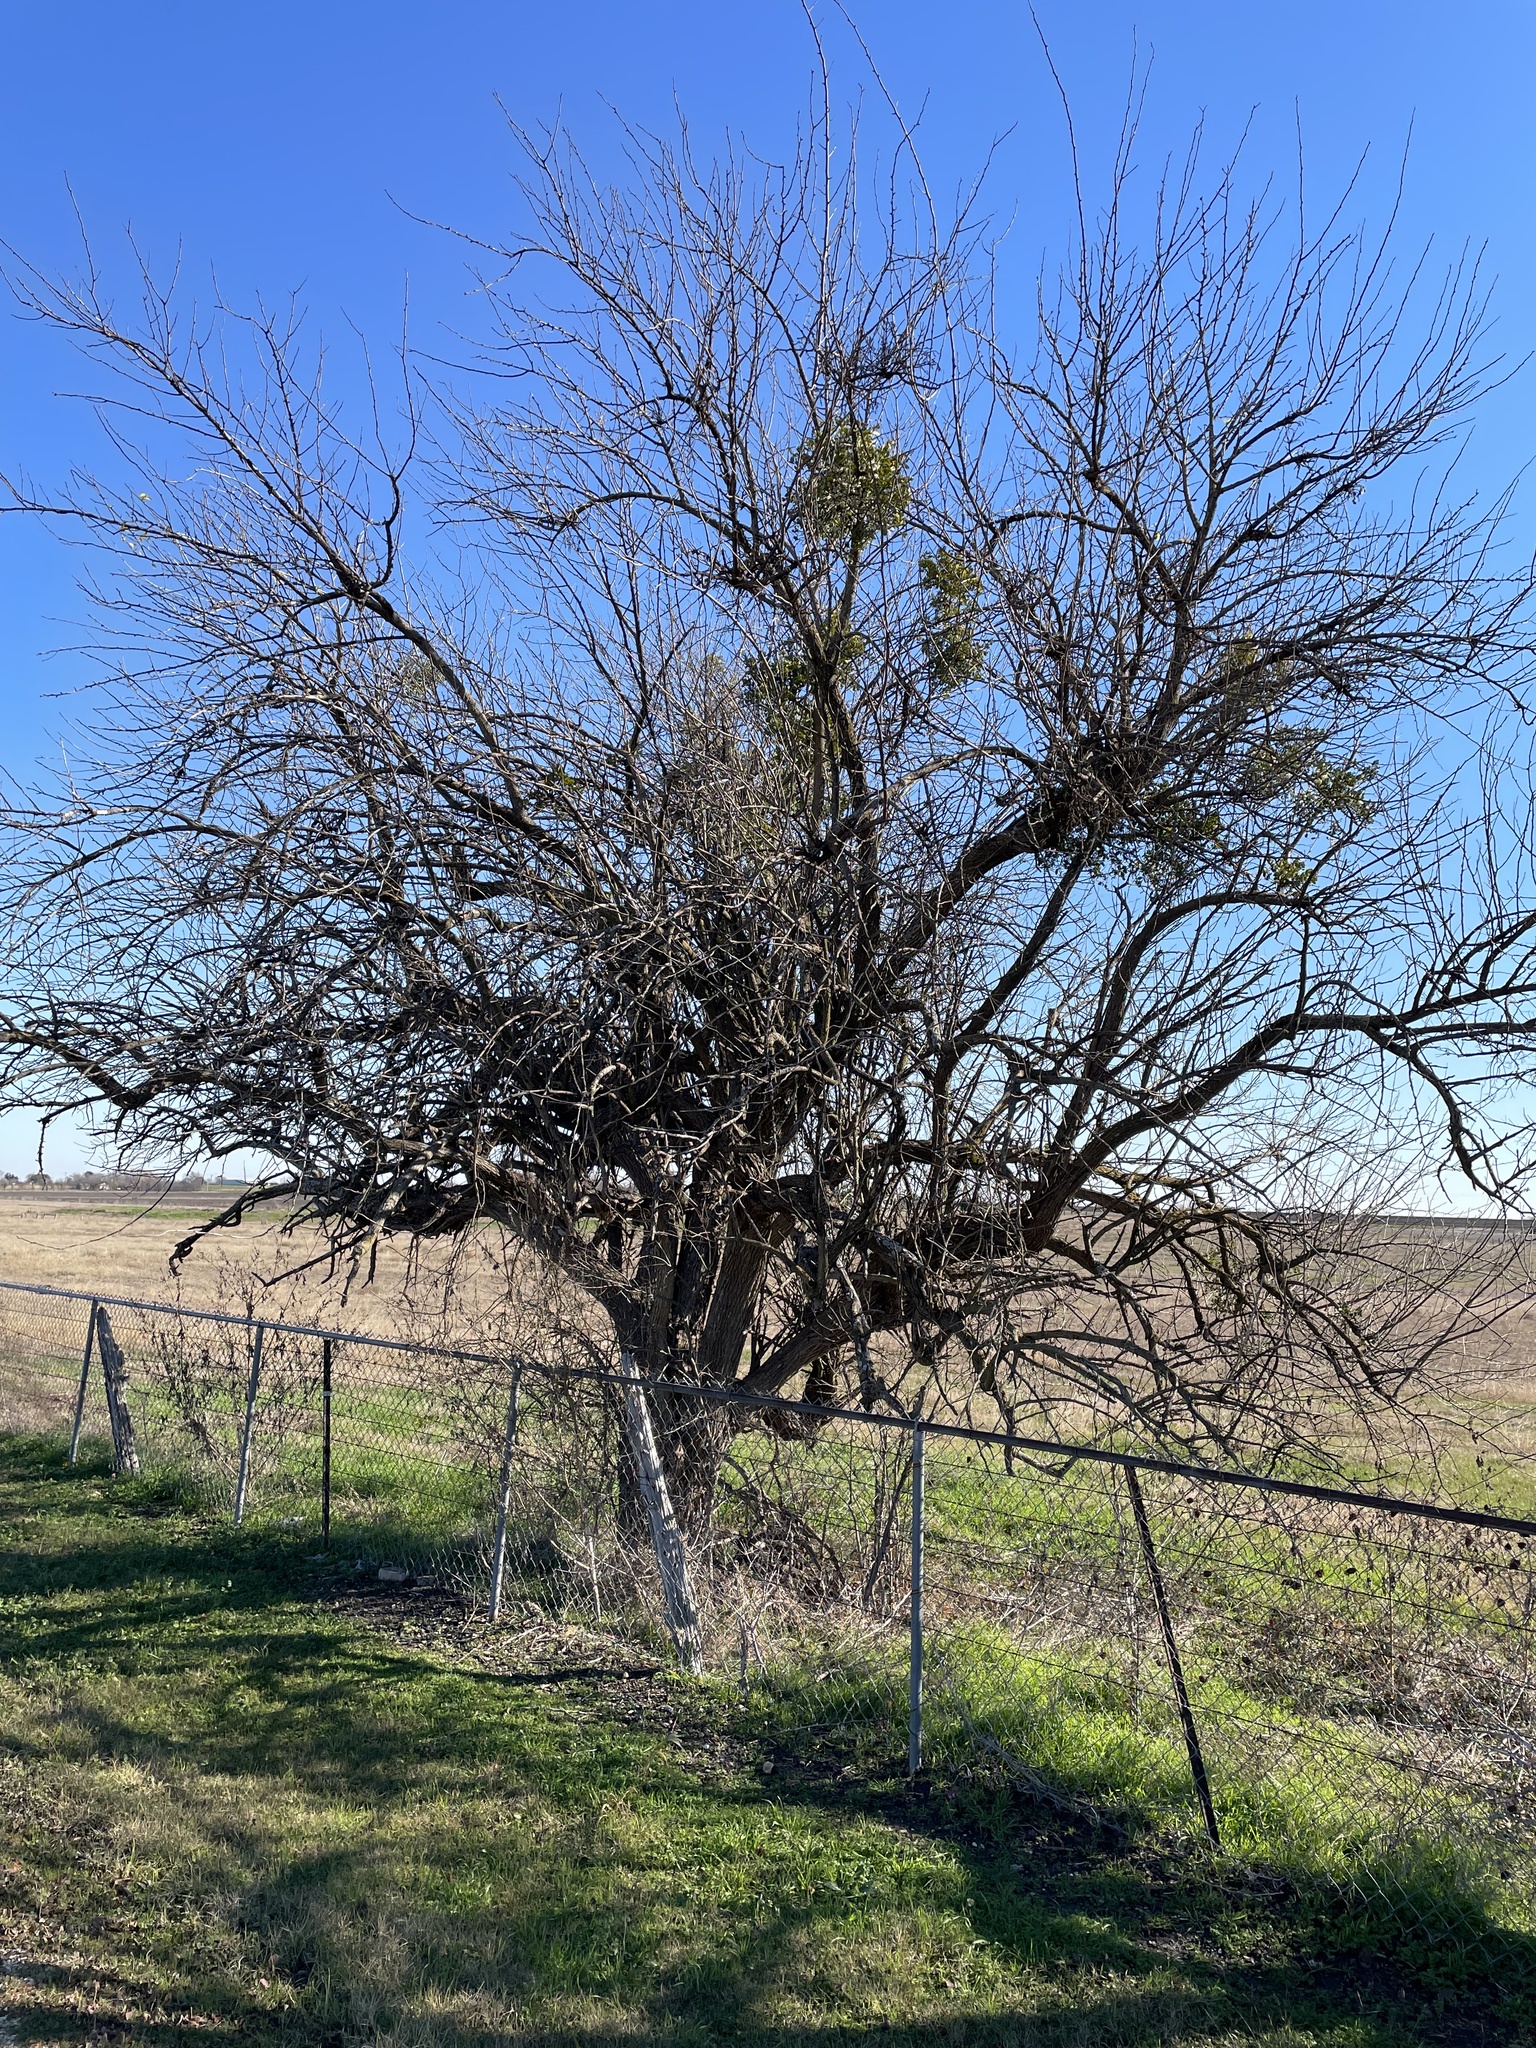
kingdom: Plantae
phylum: Tracheophyta
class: Magnoliopsida
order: Rosales
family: Moraceae
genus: Maclura
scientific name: Maclura pomifera
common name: Osage-orange
